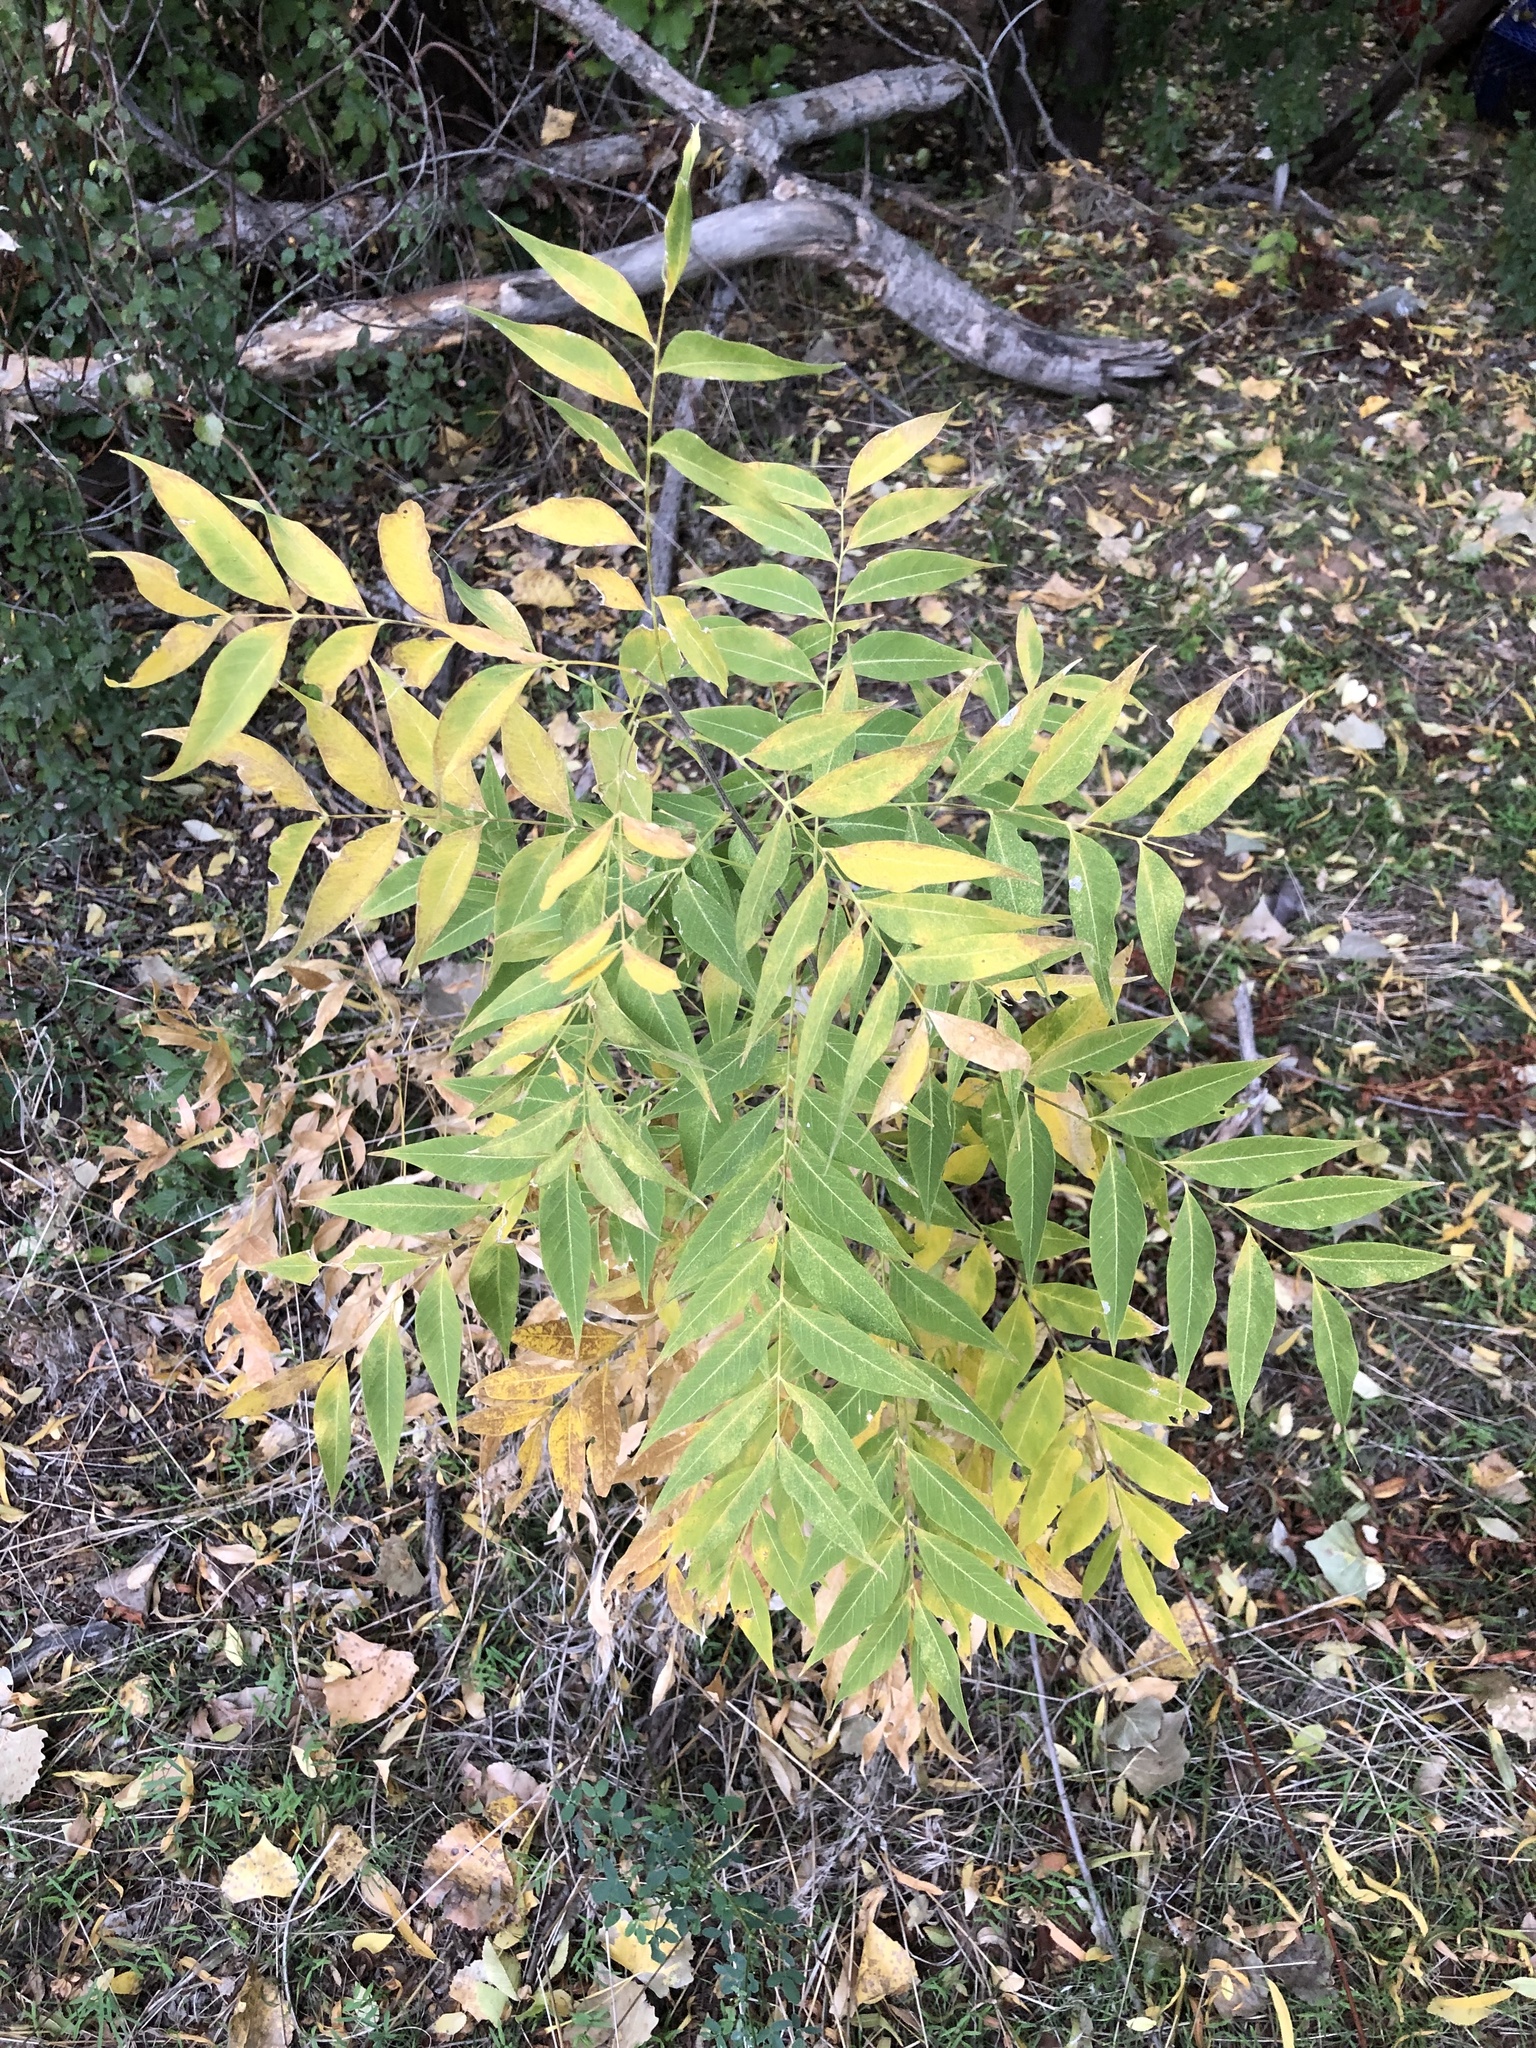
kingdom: Plantae
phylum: Tracheophyta
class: Magnoliopsida
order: Sapindales
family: Sapindaceae
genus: Sapindus
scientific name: Sapindus drummondii
